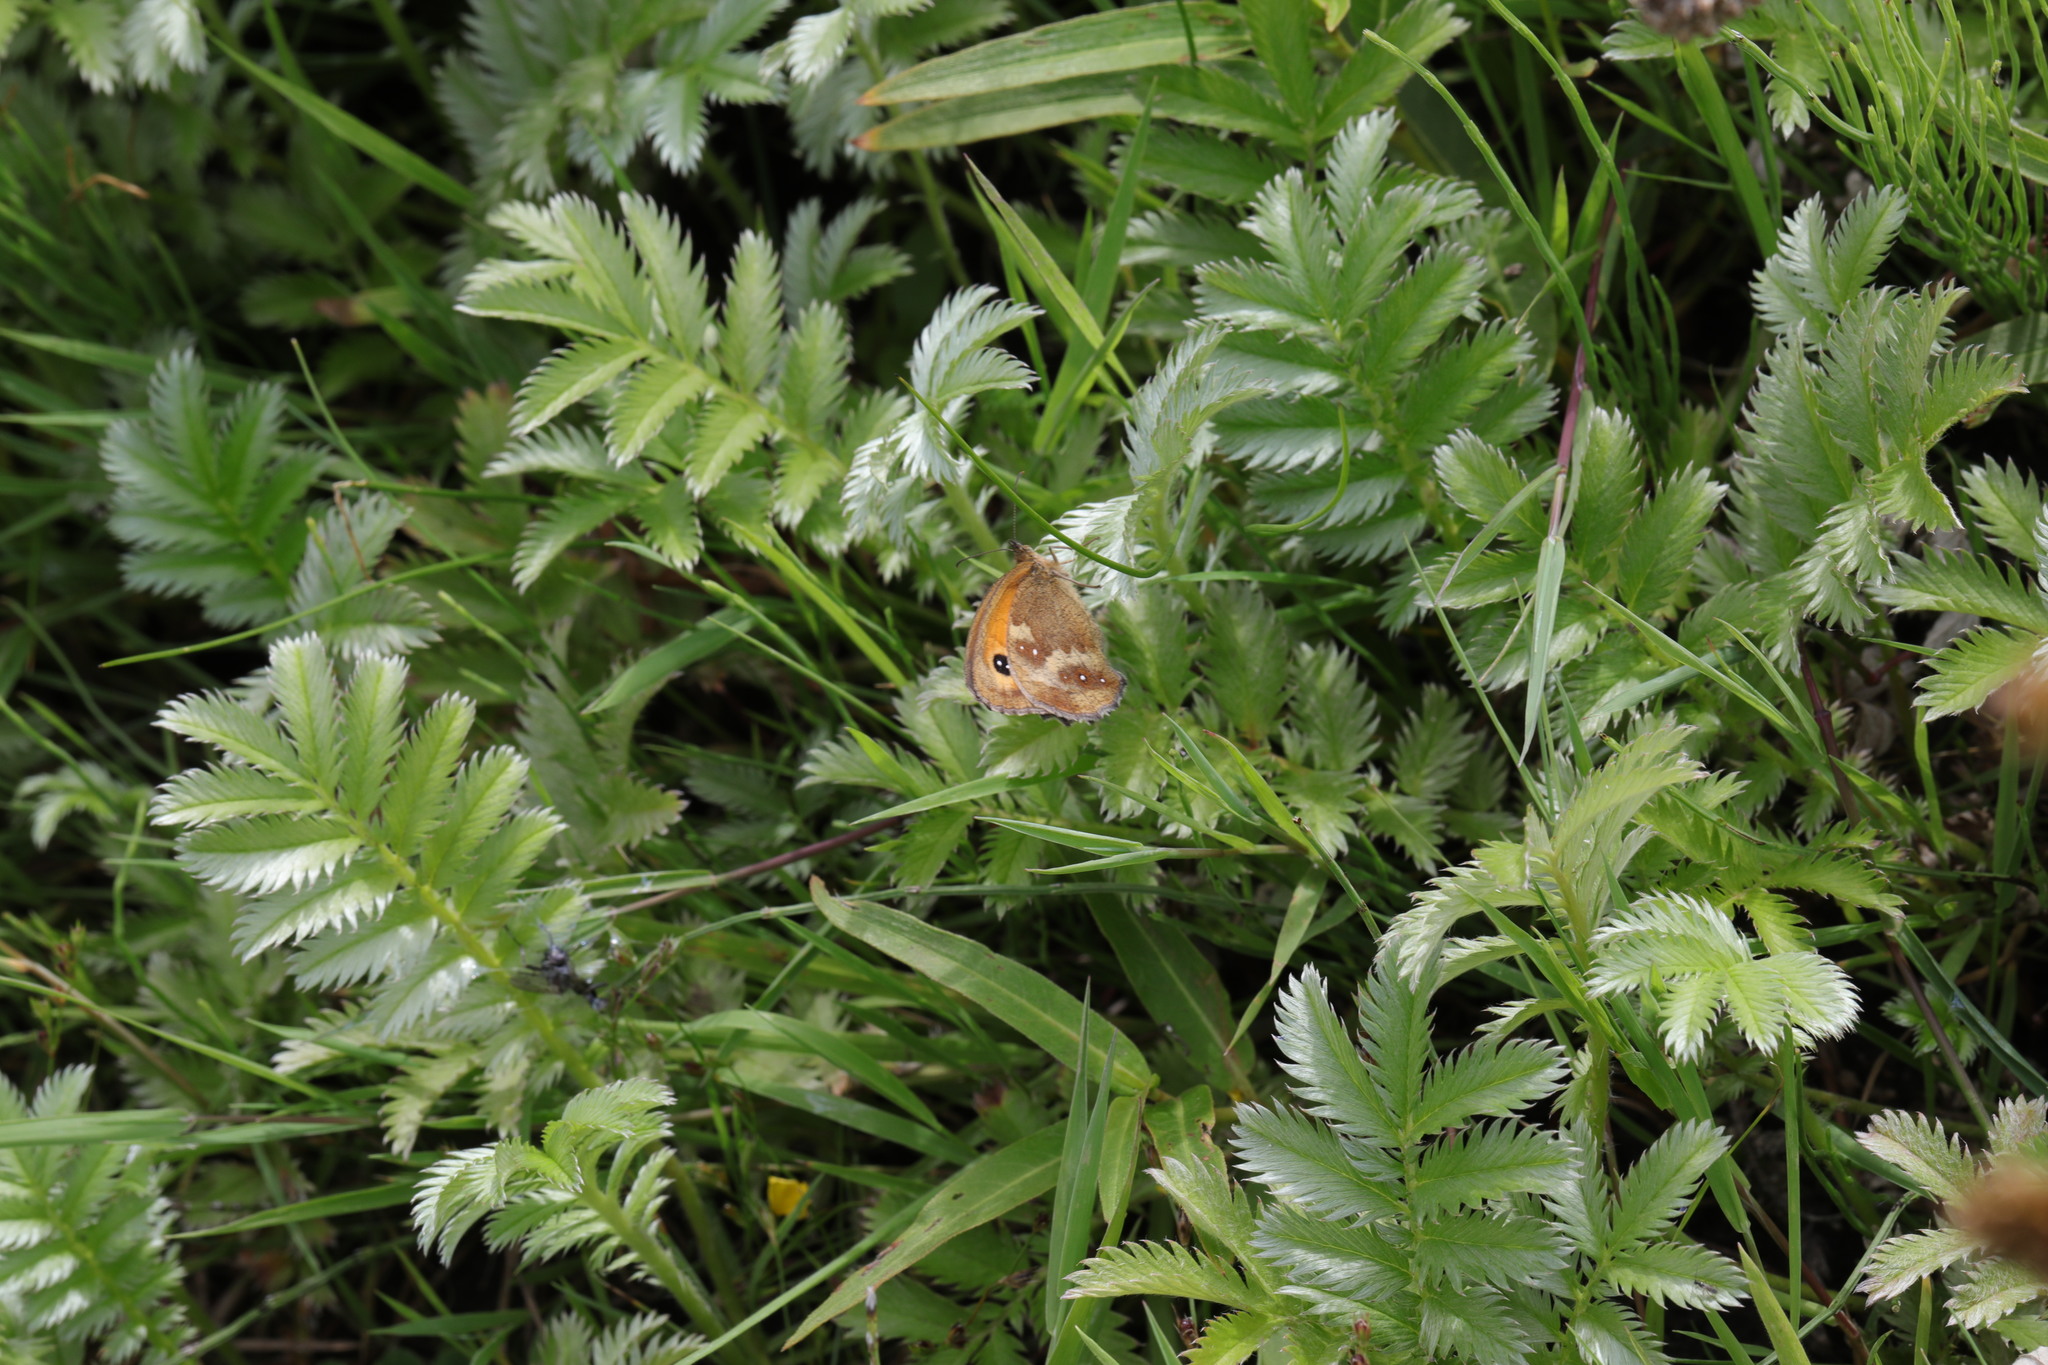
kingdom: Animalia
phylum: Arthropoda
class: Insecta
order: Lepidoptera
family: Nymphalidae
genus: Pyronia
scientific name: Pyronia tithonus
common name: Gatekeeper
